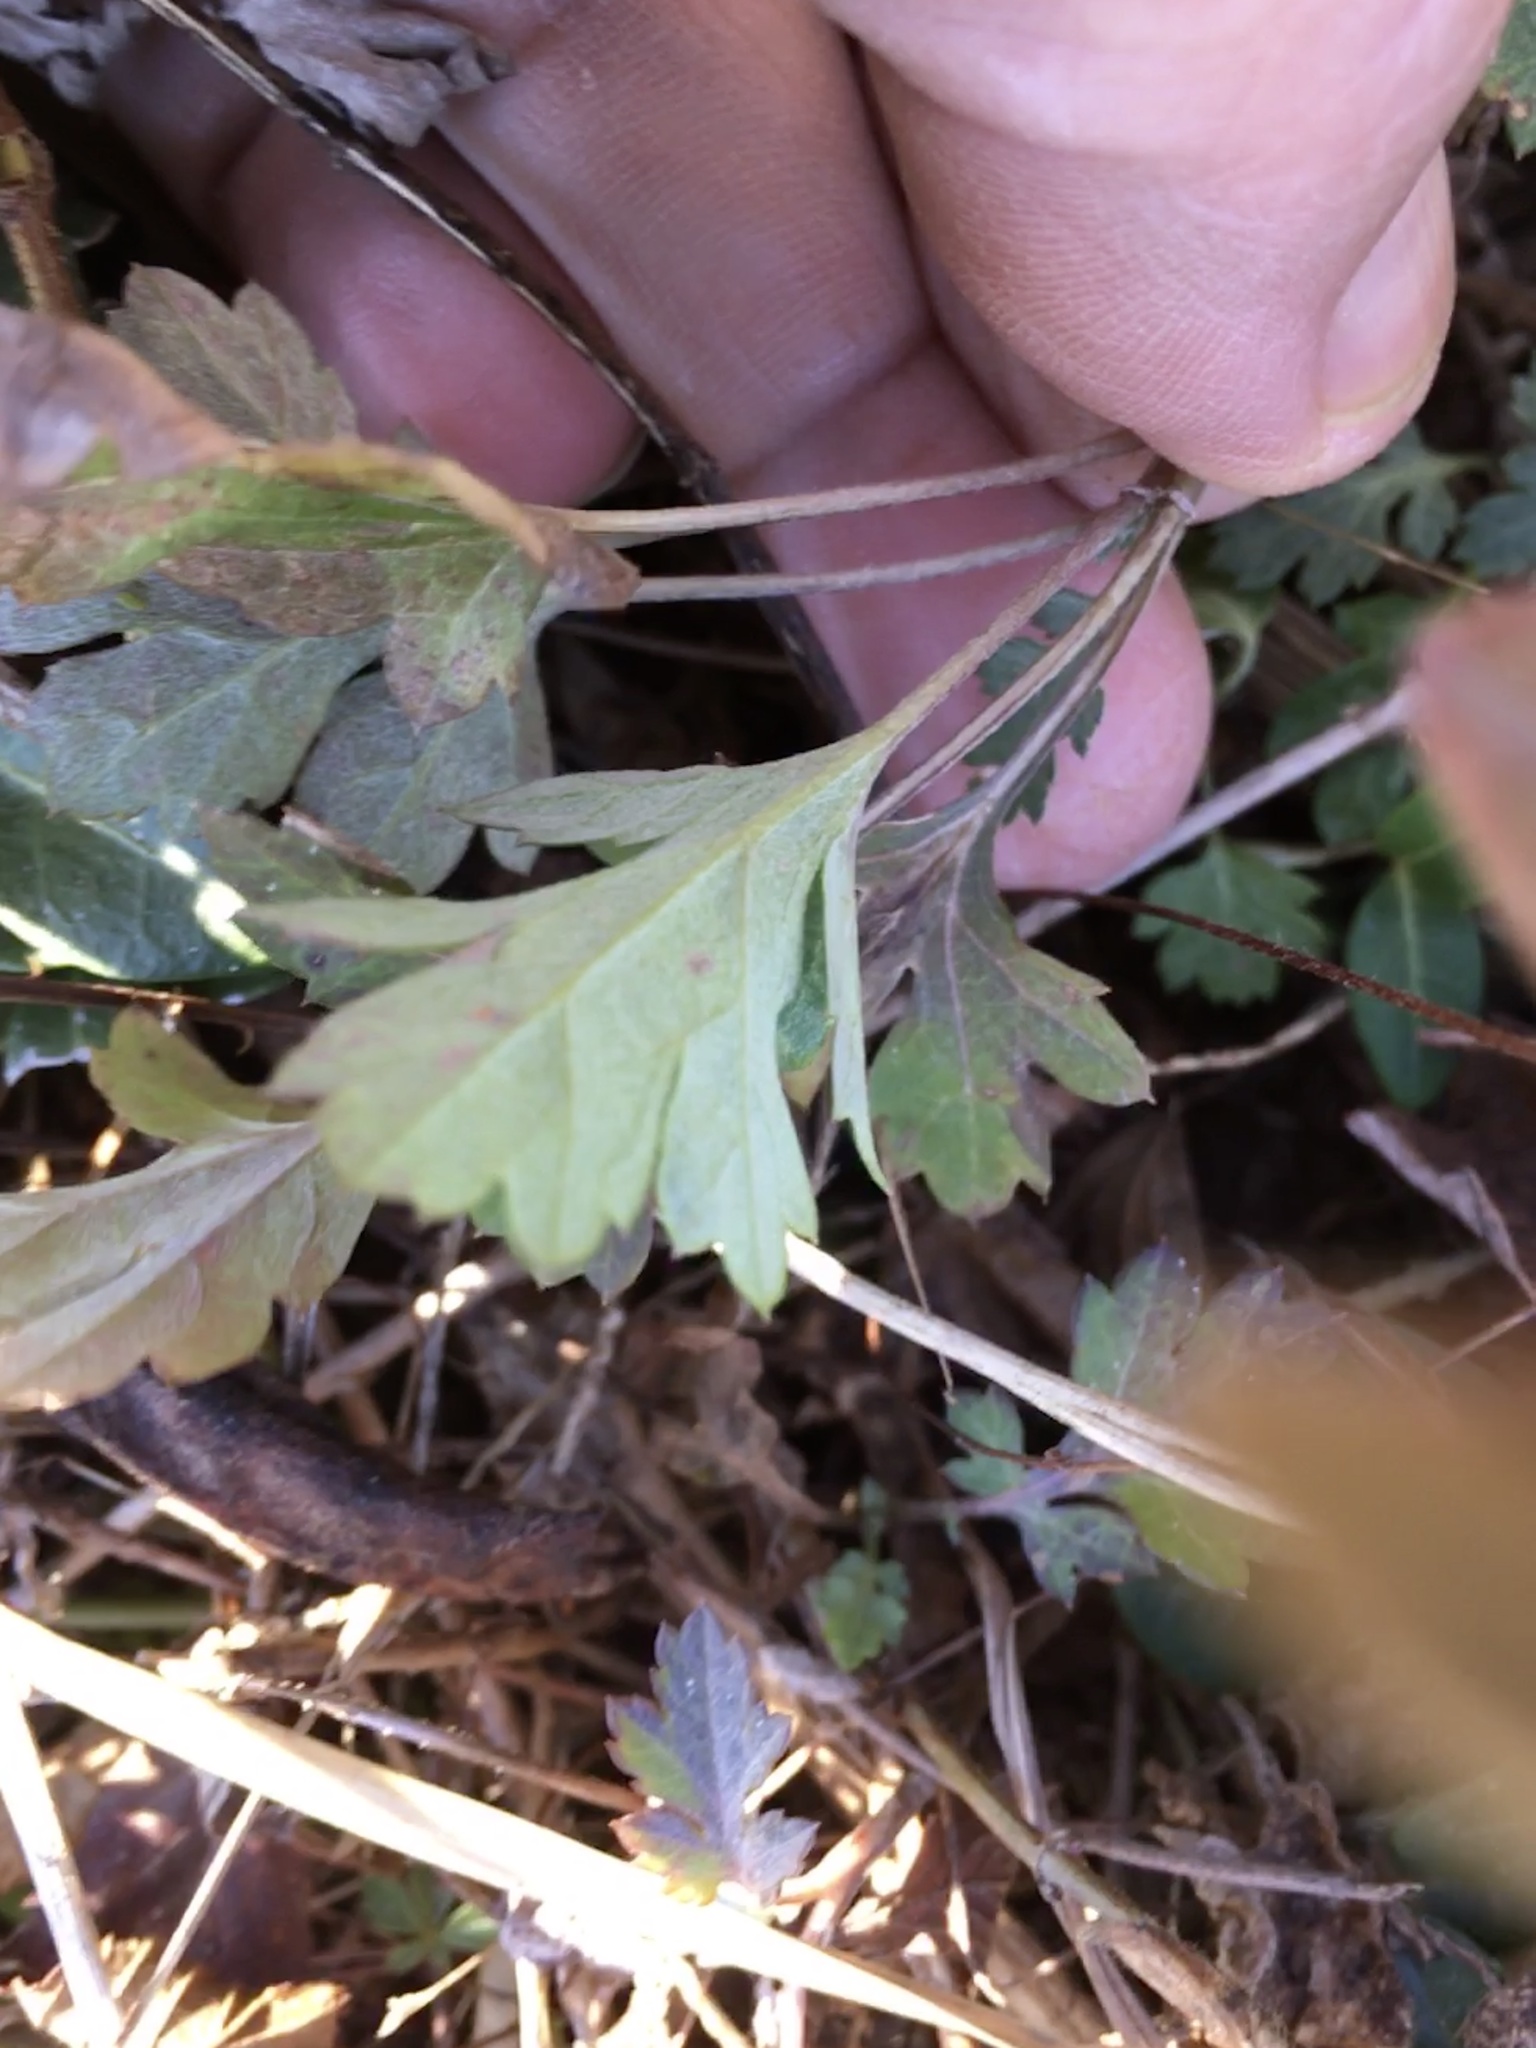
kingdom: Plantae
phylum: Tracheophyta
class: Magnoliopsida
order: Asterales
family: Asteraceae
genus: Artemisia
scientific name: Artemisia vulgaris
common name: Mugwort
